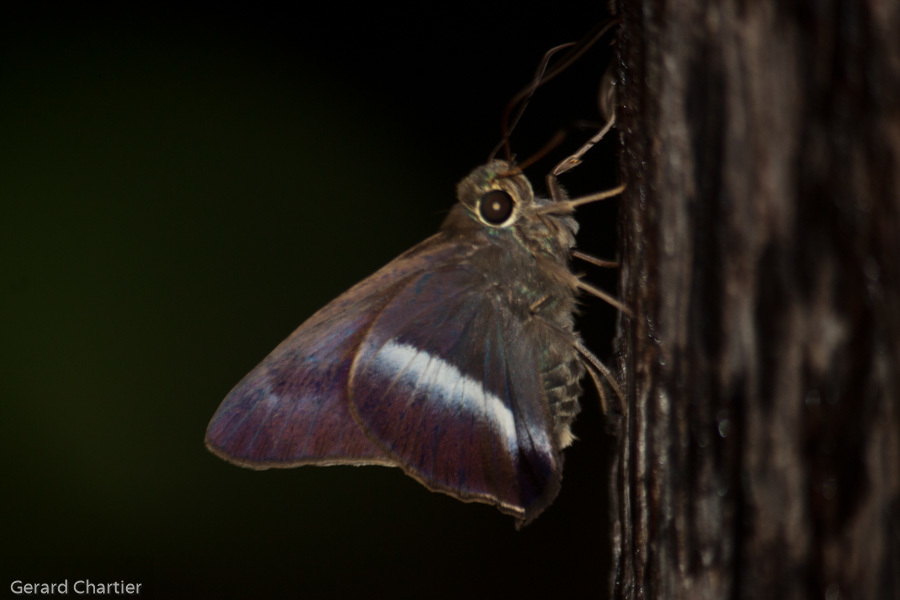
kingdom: Animalia
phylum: Arthropoda
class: Insecta
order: Lepidoptera
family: Hesperiidae
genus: Hasora
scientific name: Hasora proxissima
